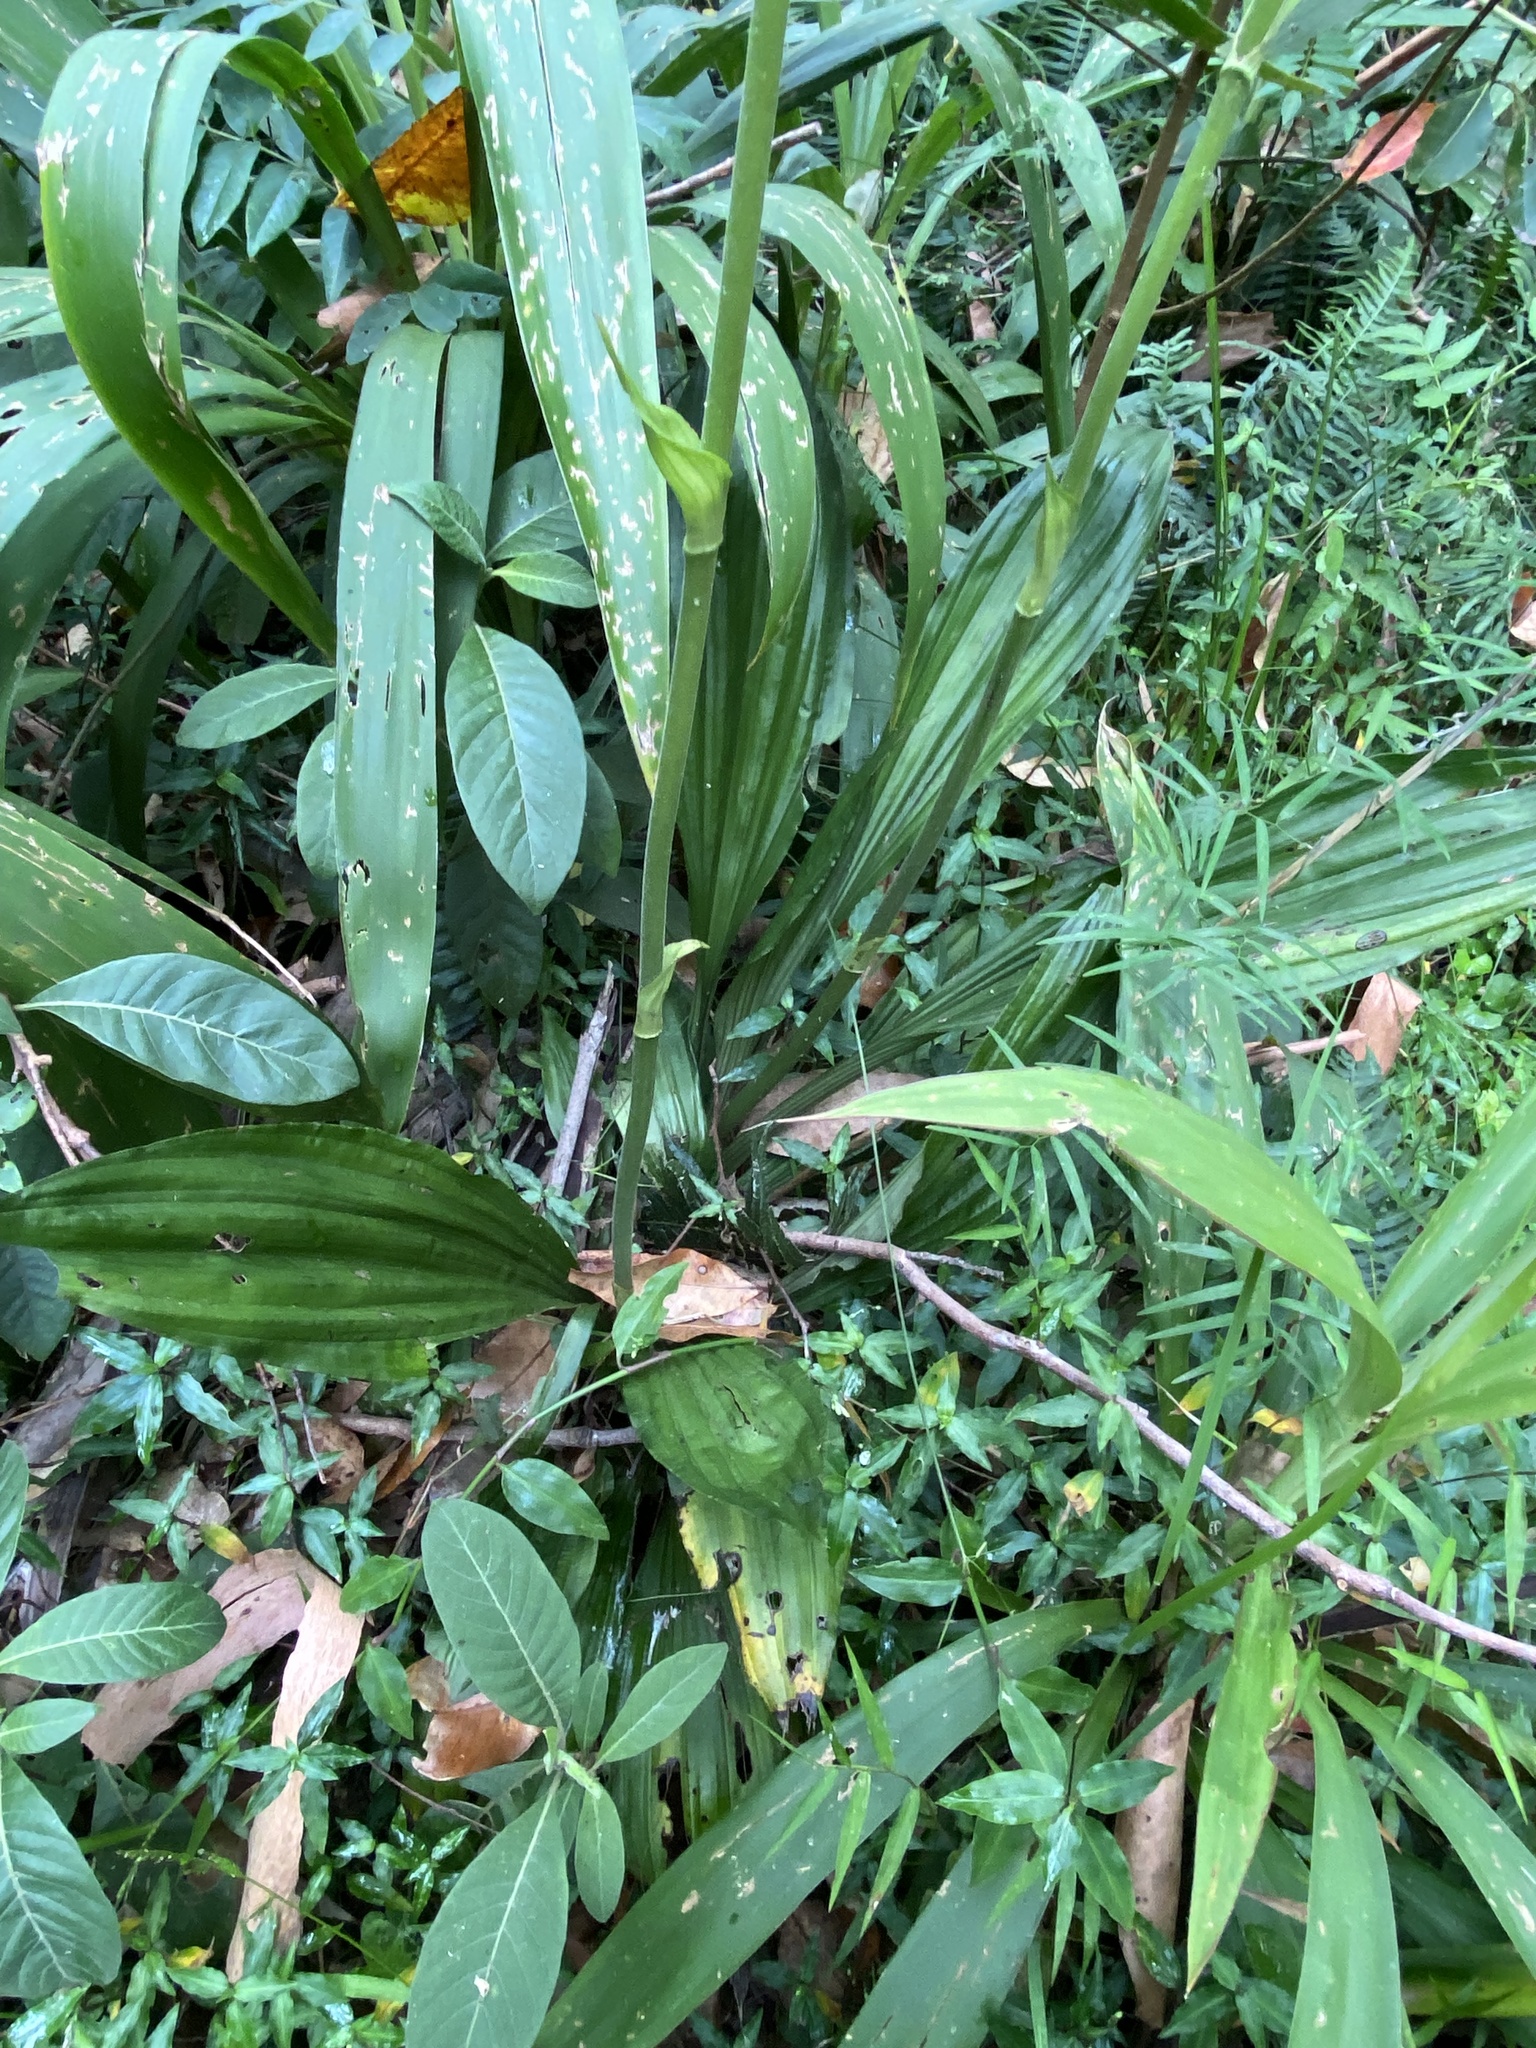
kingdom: Plantae
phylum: Tracheophyta
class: Liliopsida
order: Asparagales
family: Orchidaceae
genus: Calanthe
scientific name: Calanthe triplicata
